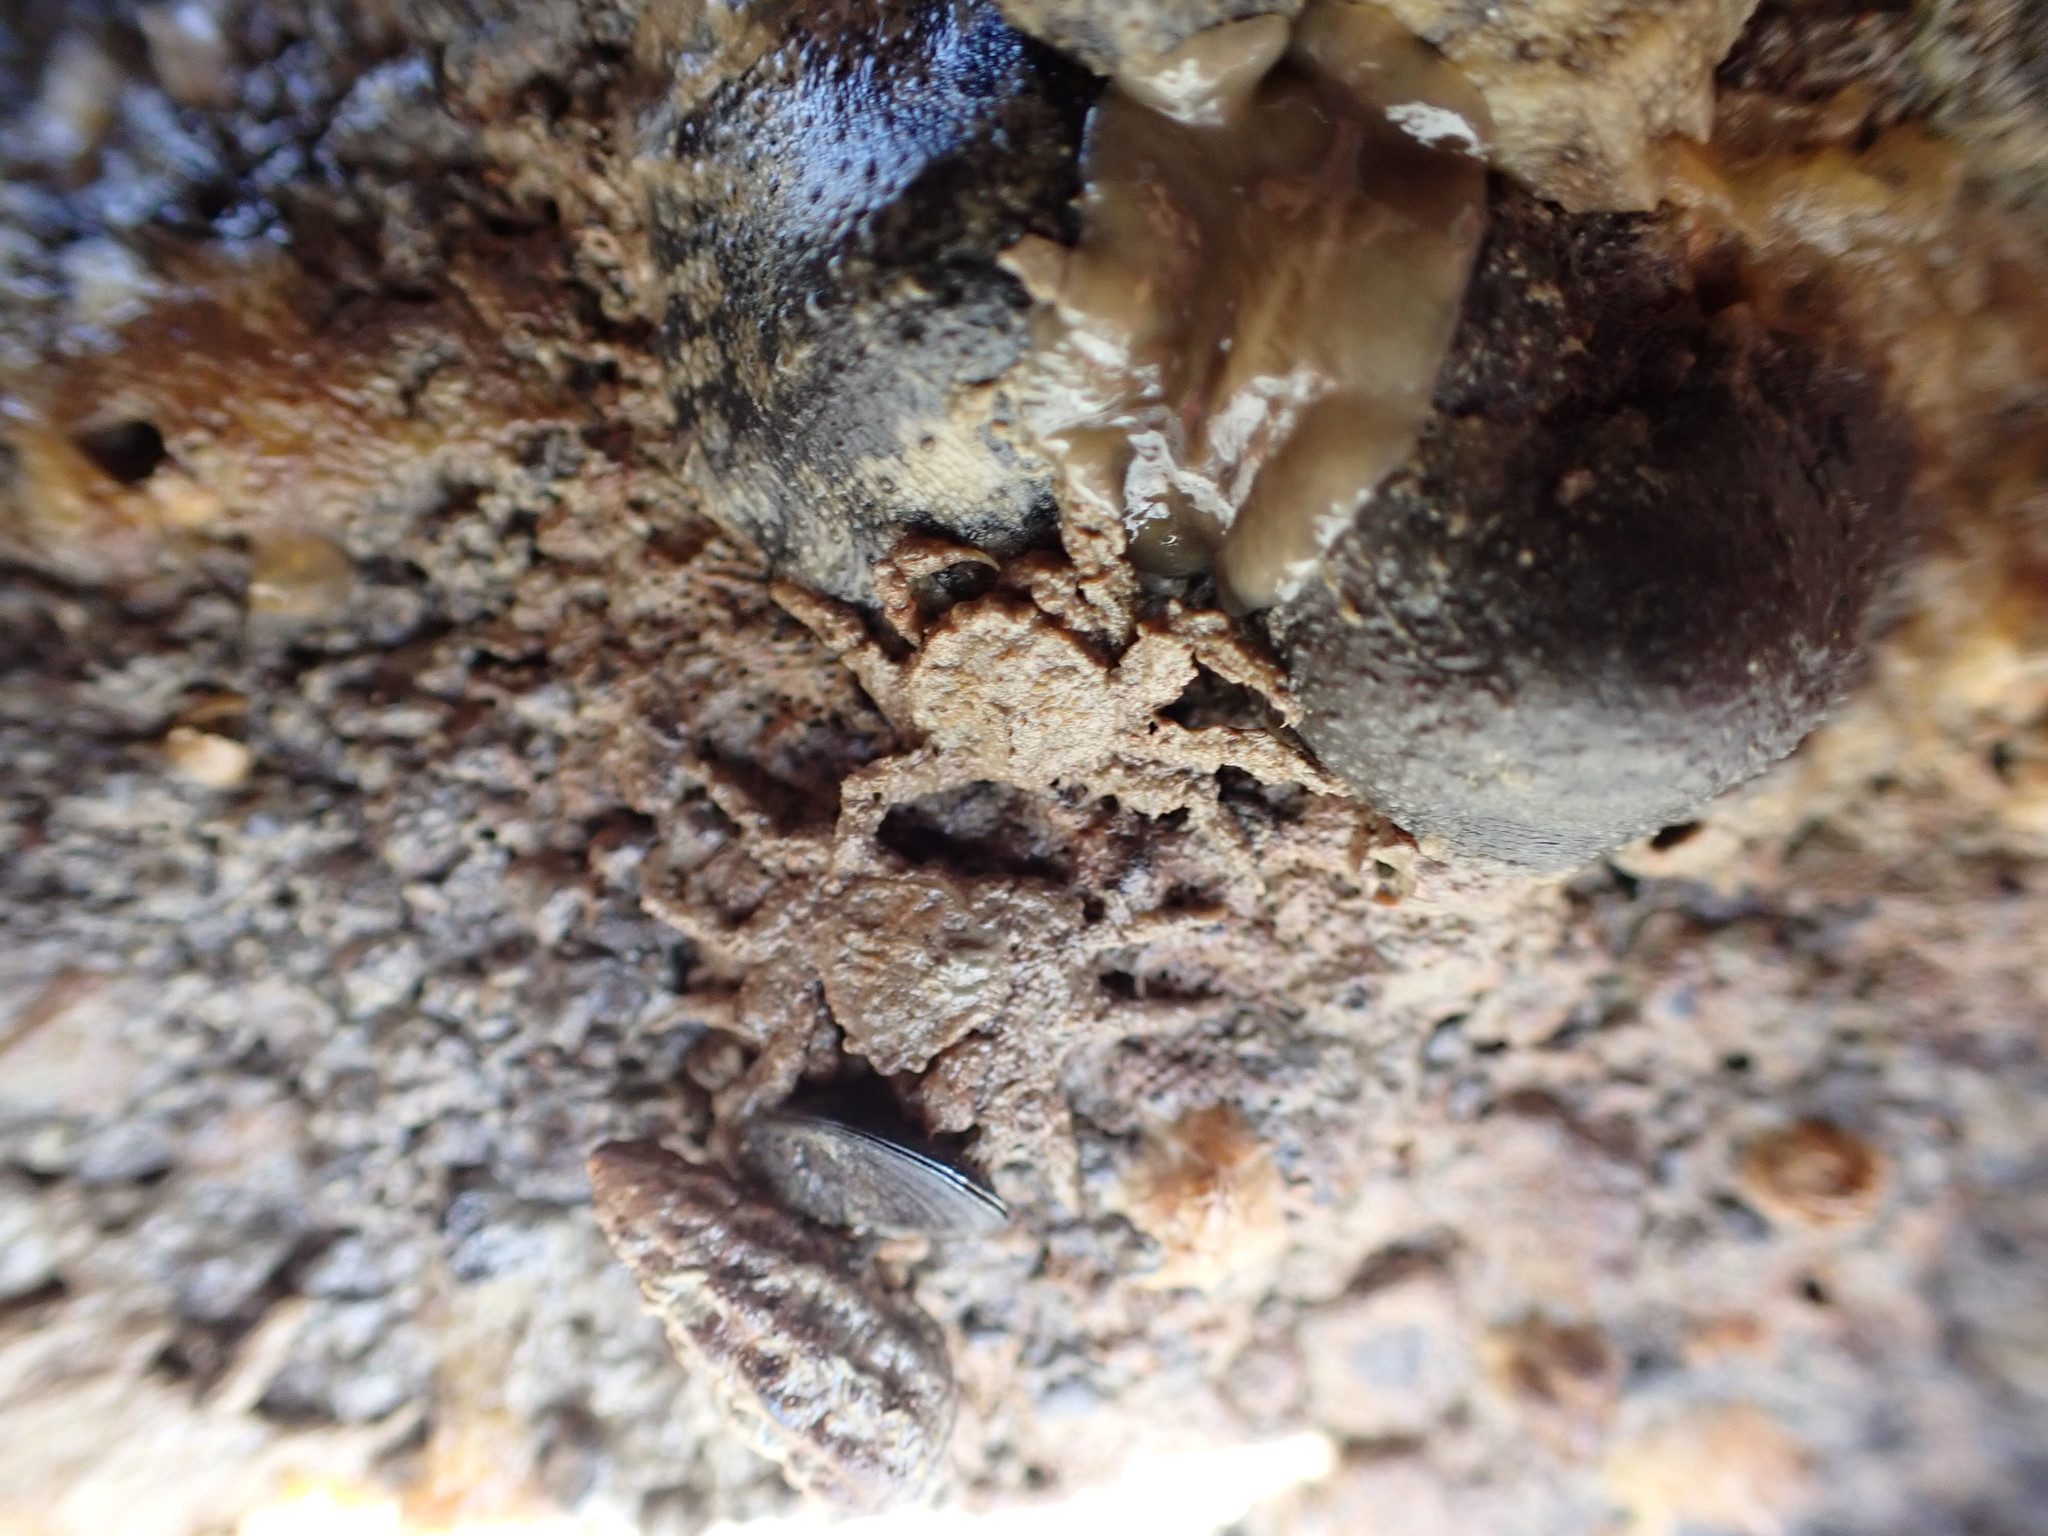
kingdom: Animalia
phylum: Arthropoda
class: Malacostraca
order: Decapoda
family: Hymenosomatidae
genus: Neohymenicus
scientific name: Neohymenicus pubescens
